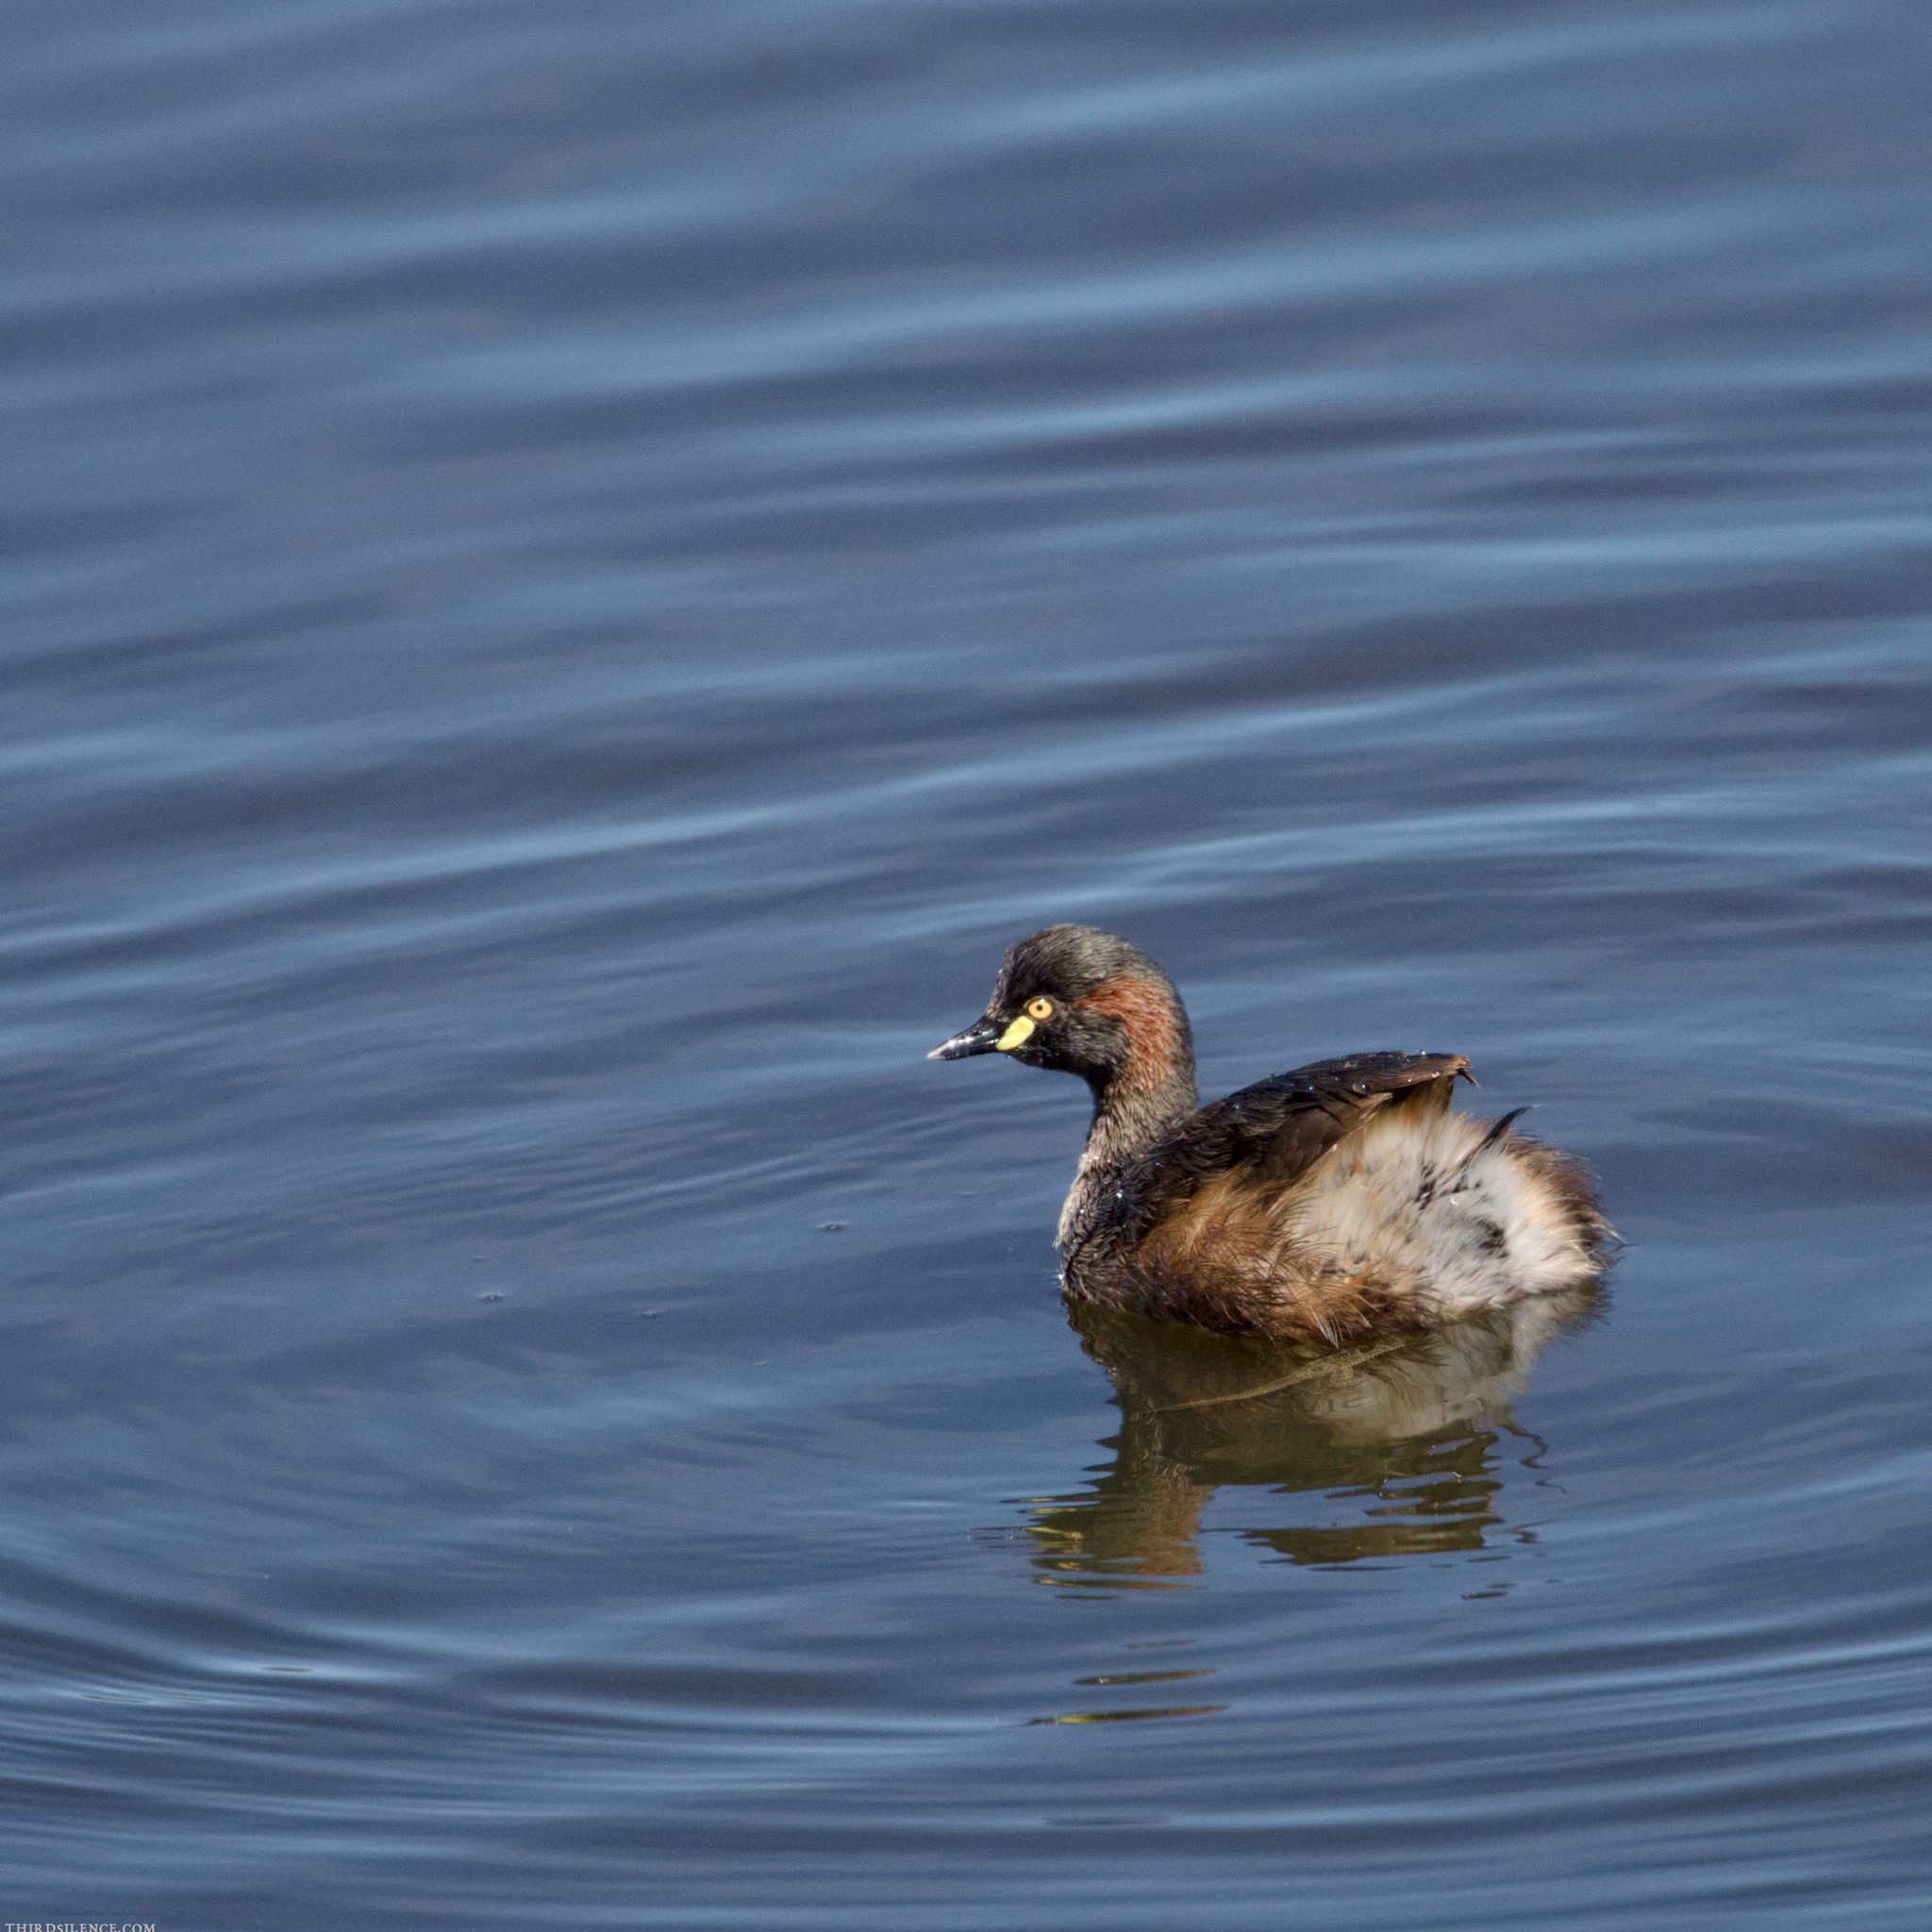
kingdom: Animalia
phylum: Chordata
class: Aves
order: Podicipediformes
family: Podicipedidae
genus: Tachybaptus
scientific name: Tachybaptus novaehollandiae
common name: Australasian grebe
